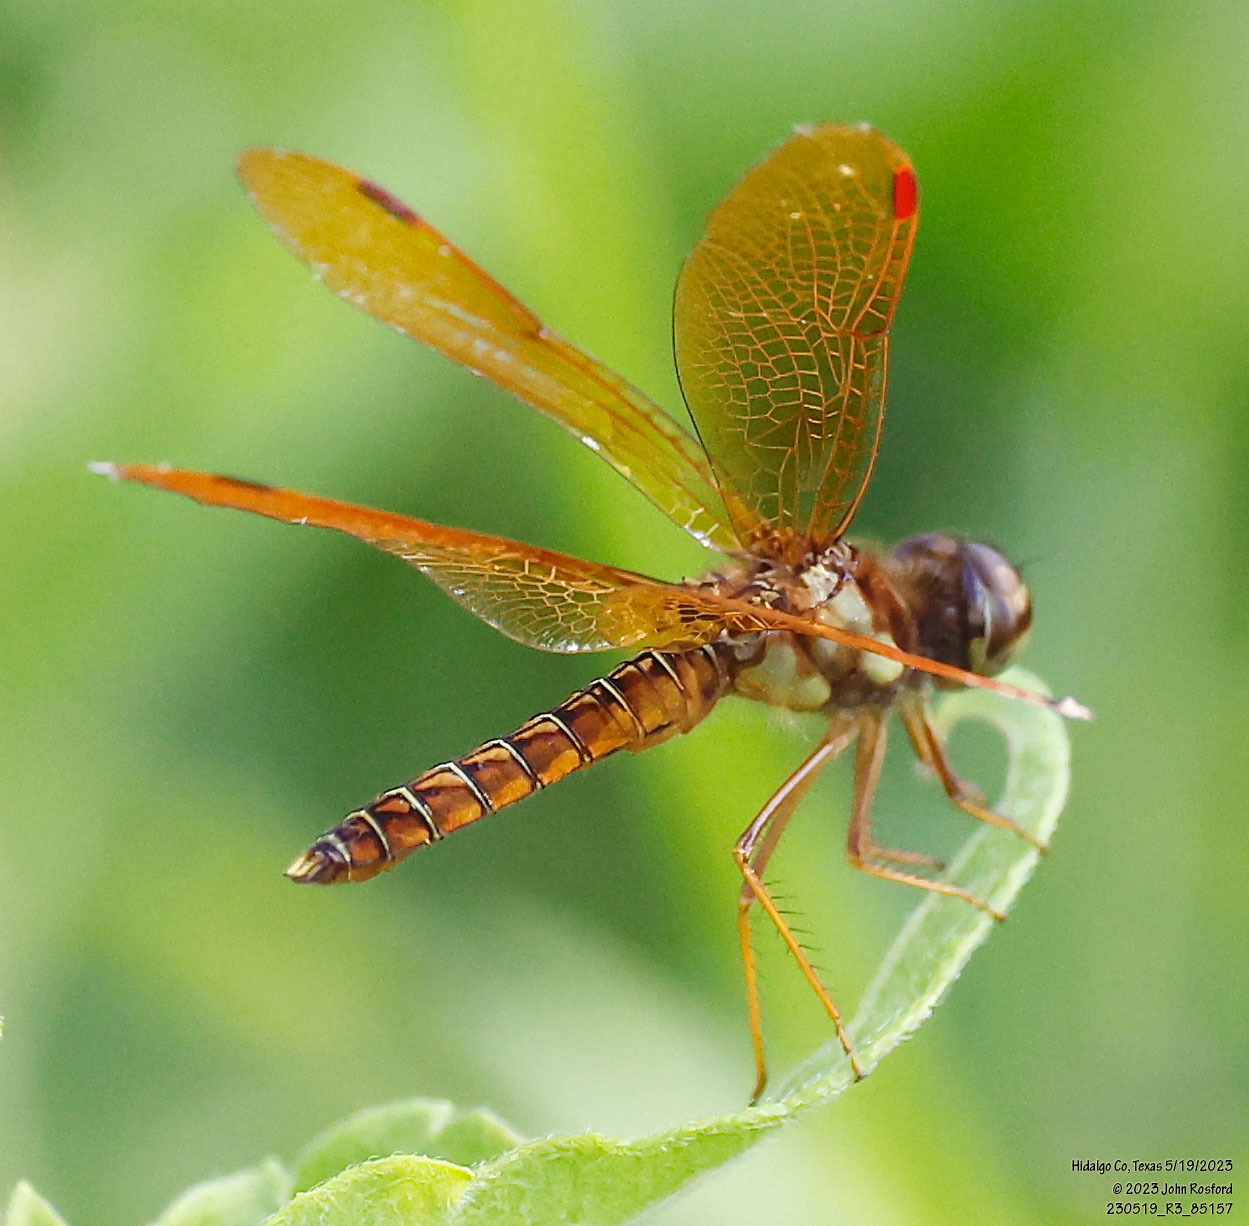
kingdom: Animalia
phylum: Arthropoda
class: Insecta
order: Odonata
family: Libellulidae
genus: Perithemis
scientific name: Perithemis tenera
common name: Eastern amberwing
